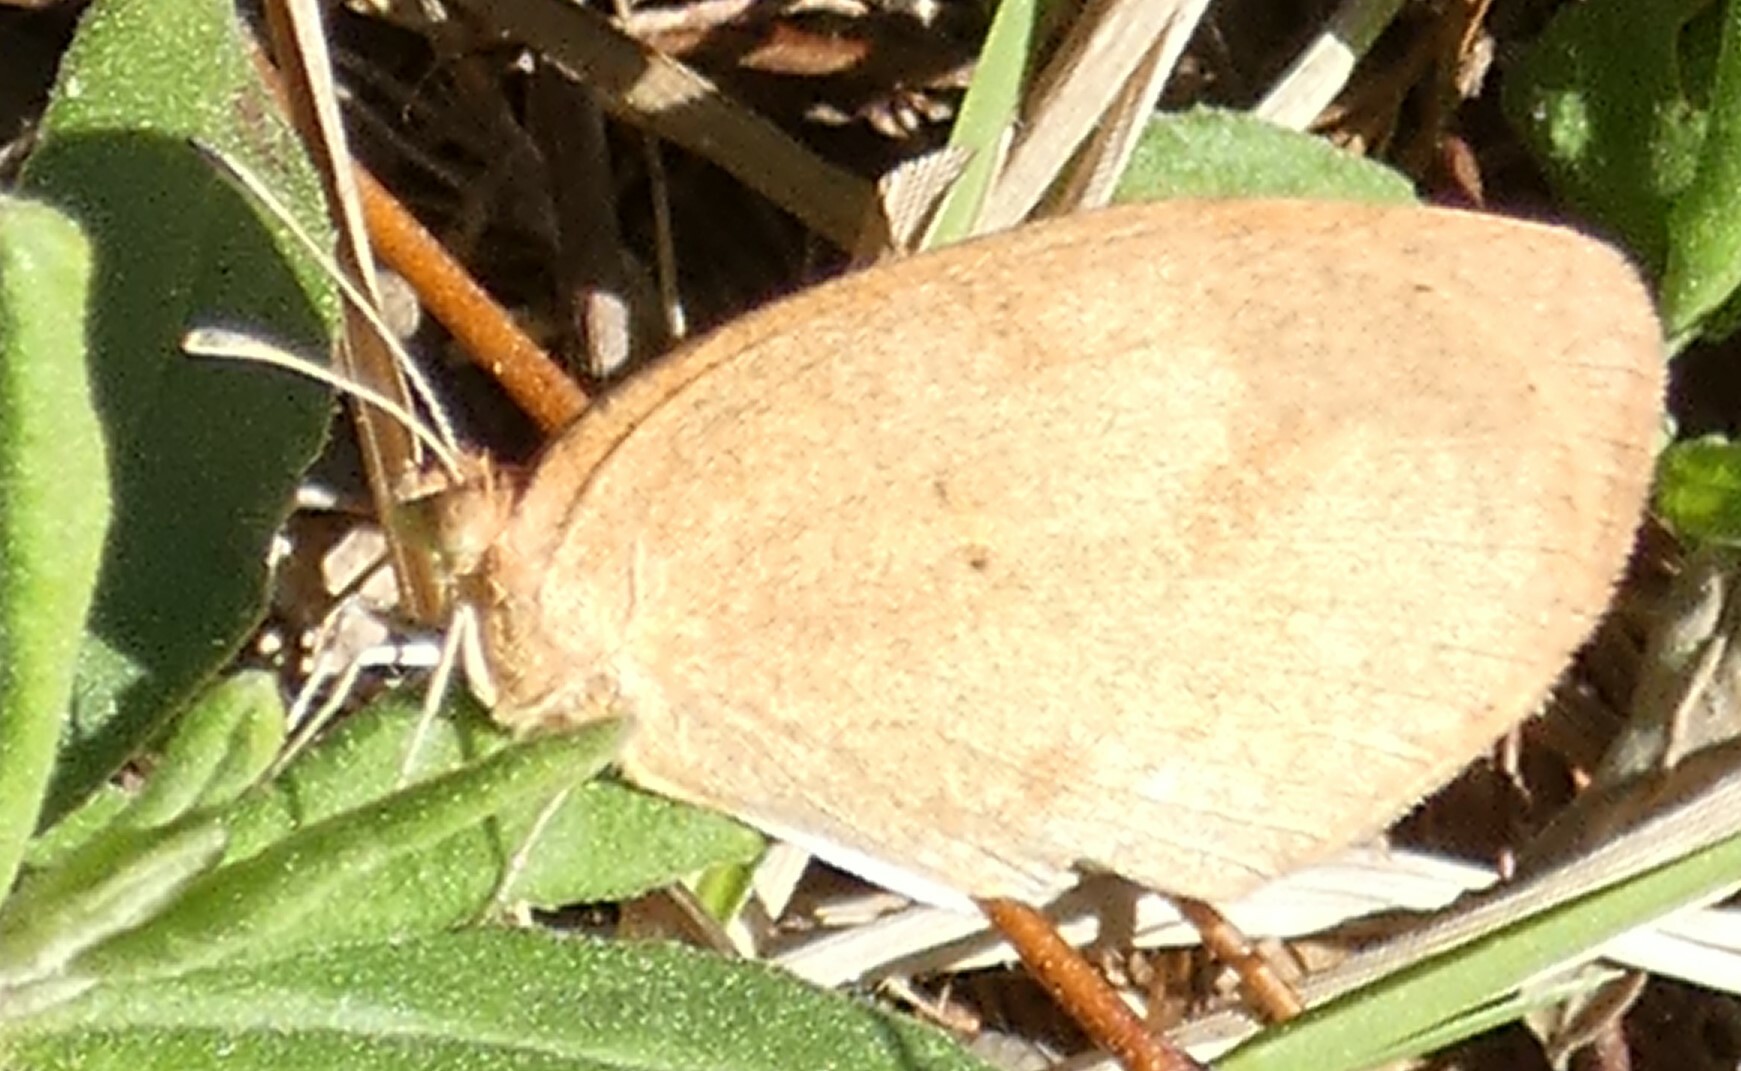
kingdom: Animalia
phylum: Arthropoda
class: Insecta
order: Lepidoptera
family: Pieridae
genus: Eurema
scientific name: Eurema daira
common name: Barred sulphur
